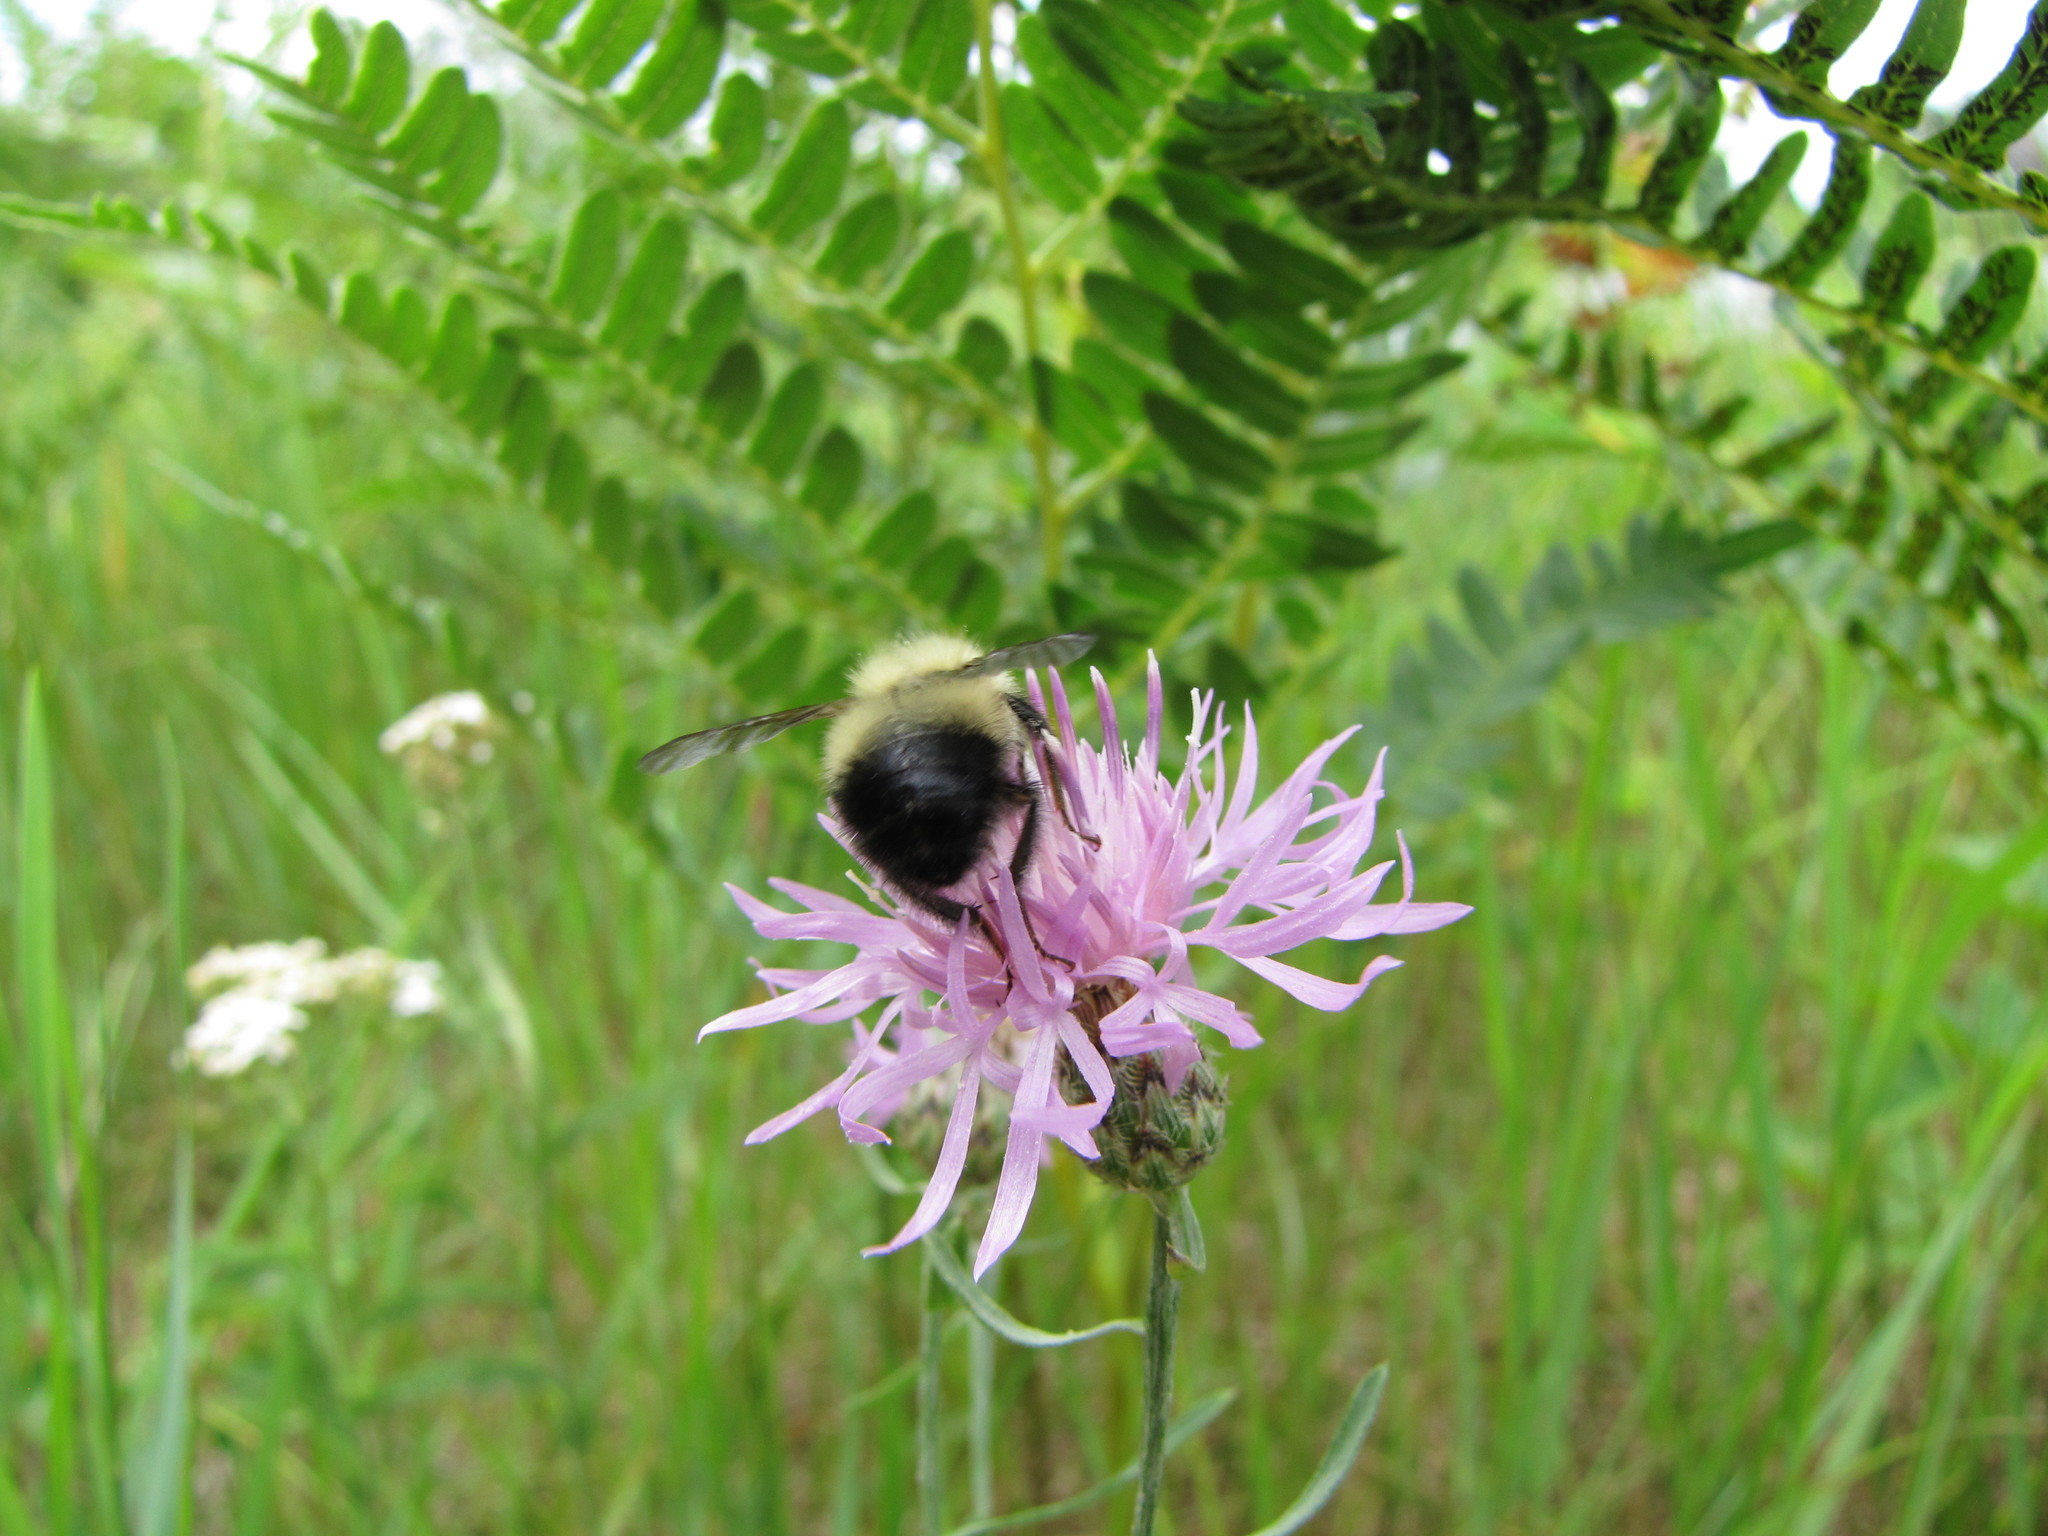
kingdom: Plantae
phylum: Tracheophyta
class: Magnoliopsida
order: Asterales
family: Asteraceae
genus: Centaurea
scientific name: Centaurea stoebe
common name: Spotted knapweed
